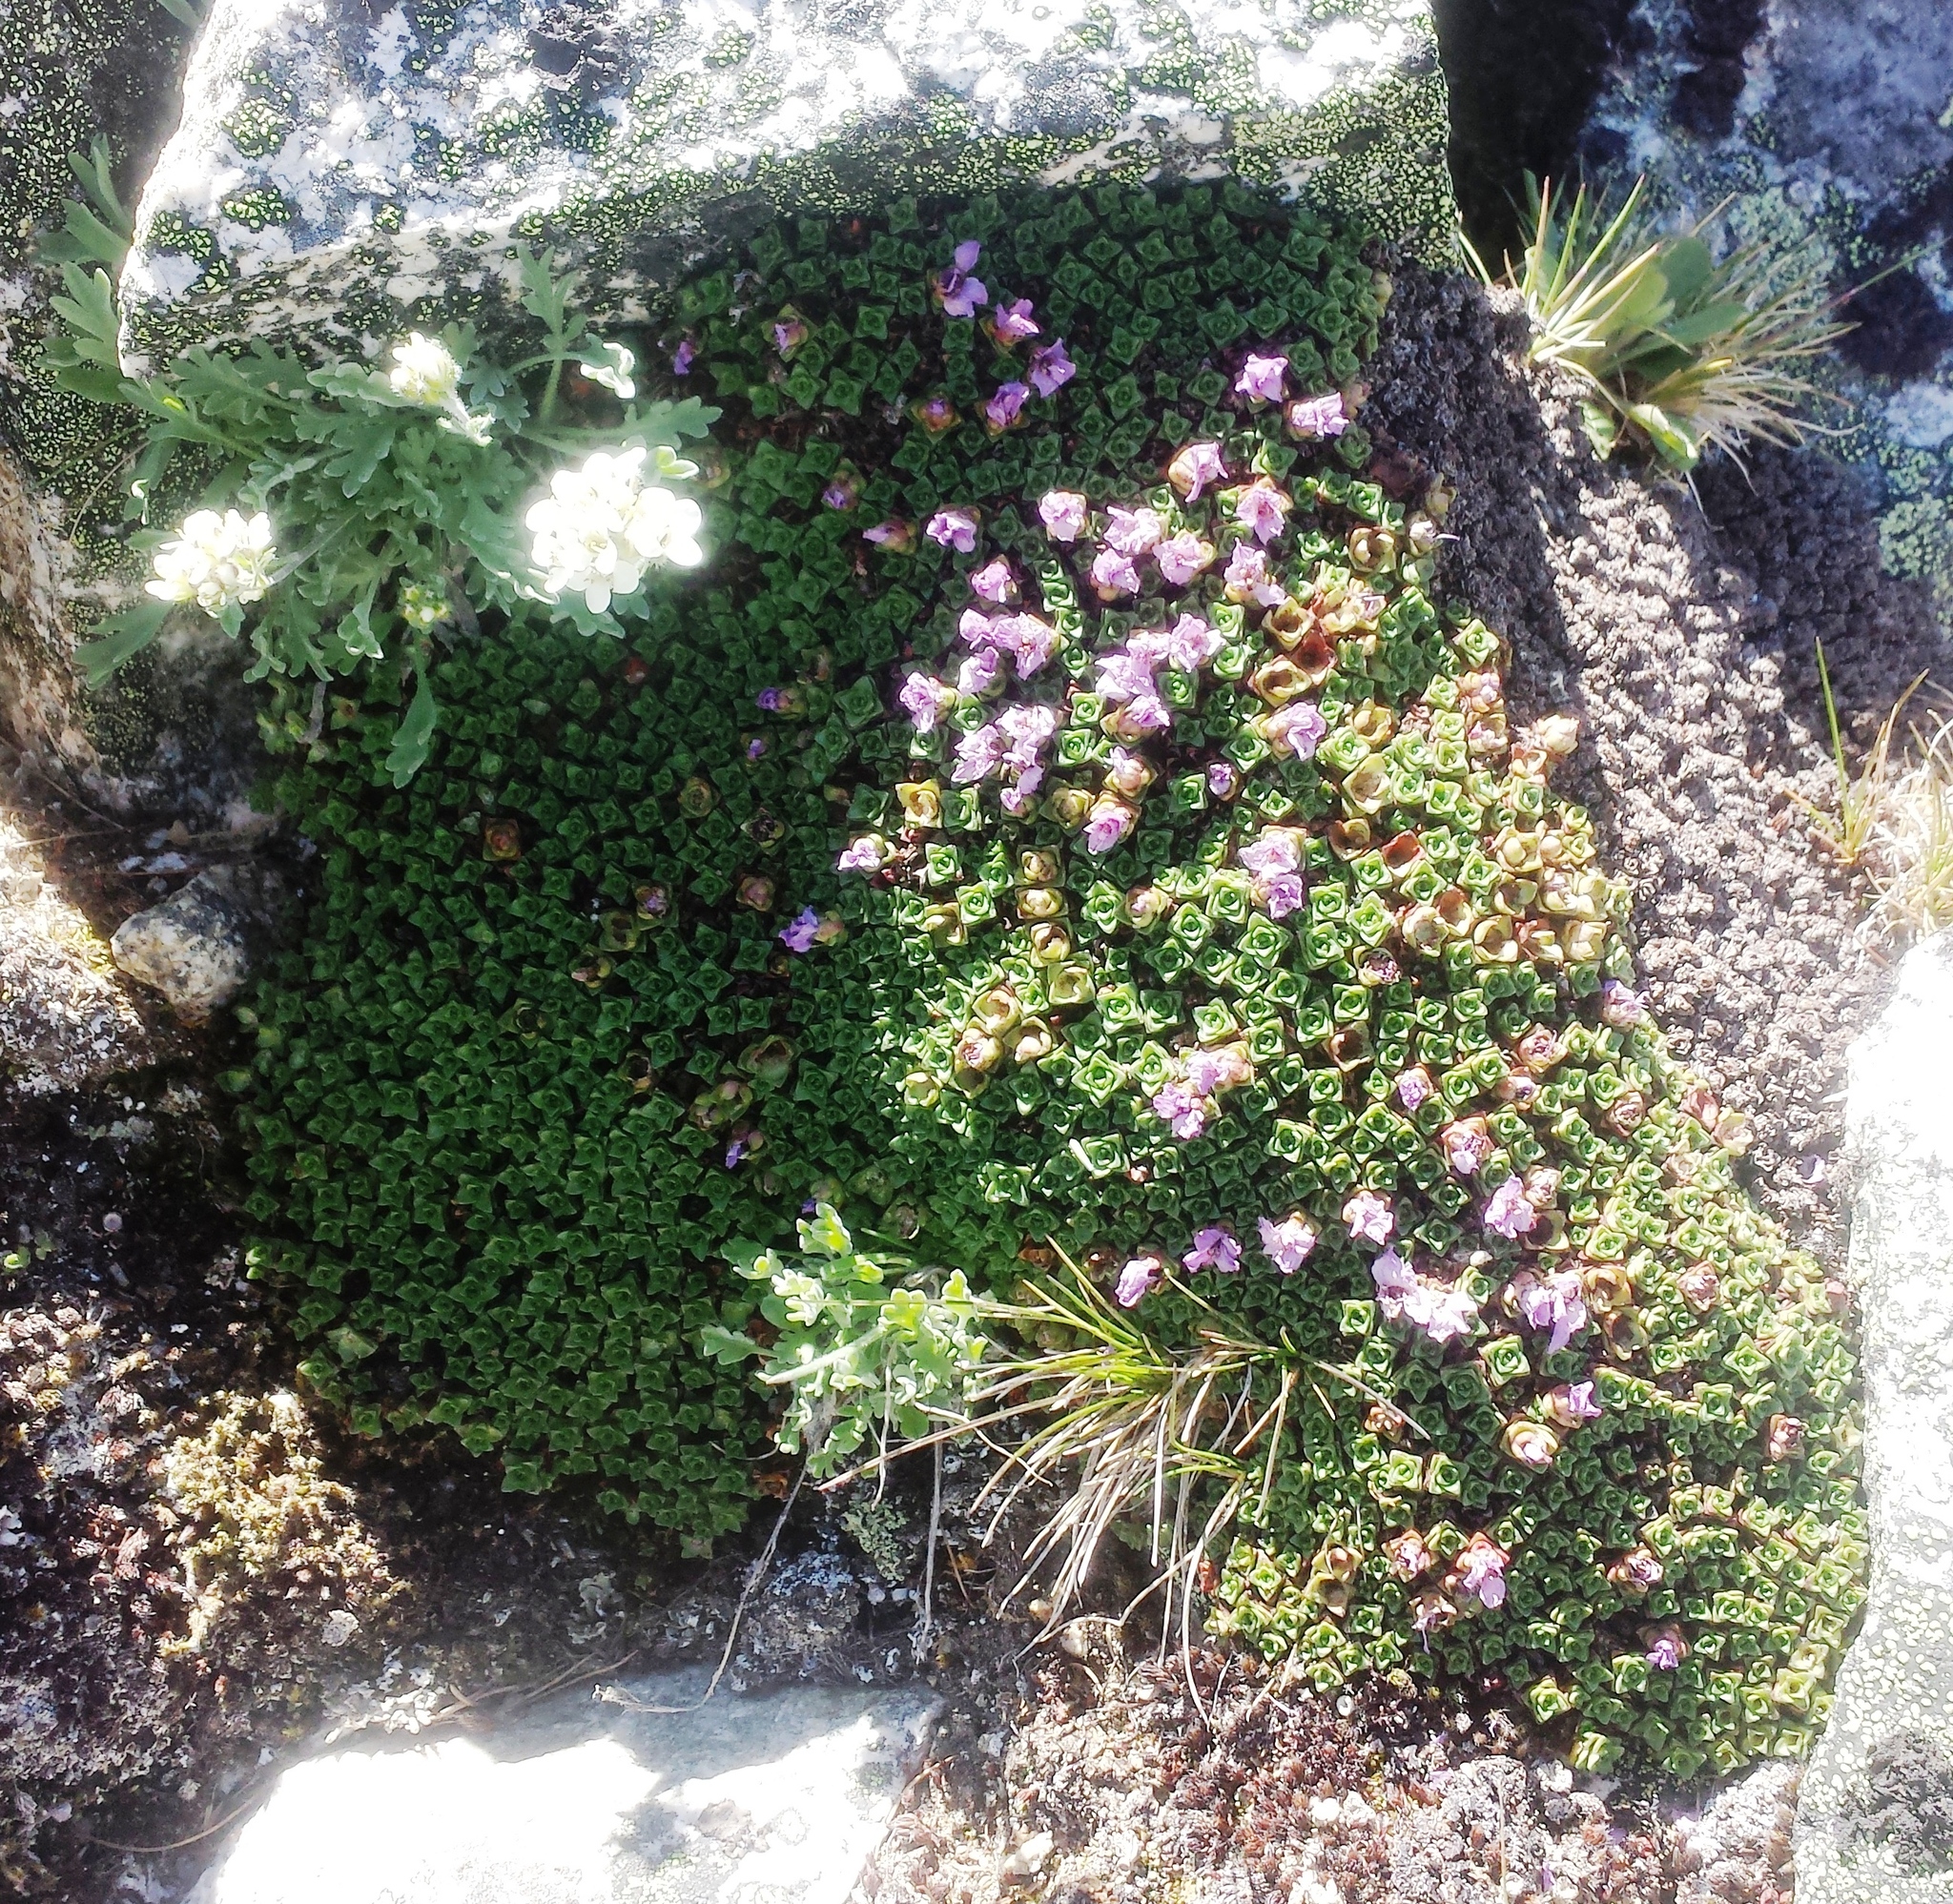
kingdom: Plantae
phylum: Tracheophyta
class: Magnoliopsida
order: Saxifragales
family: Saxifragaceae
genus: Saxifraga
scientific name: Saxifraga oppositifolia
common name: Purple saxifrage
